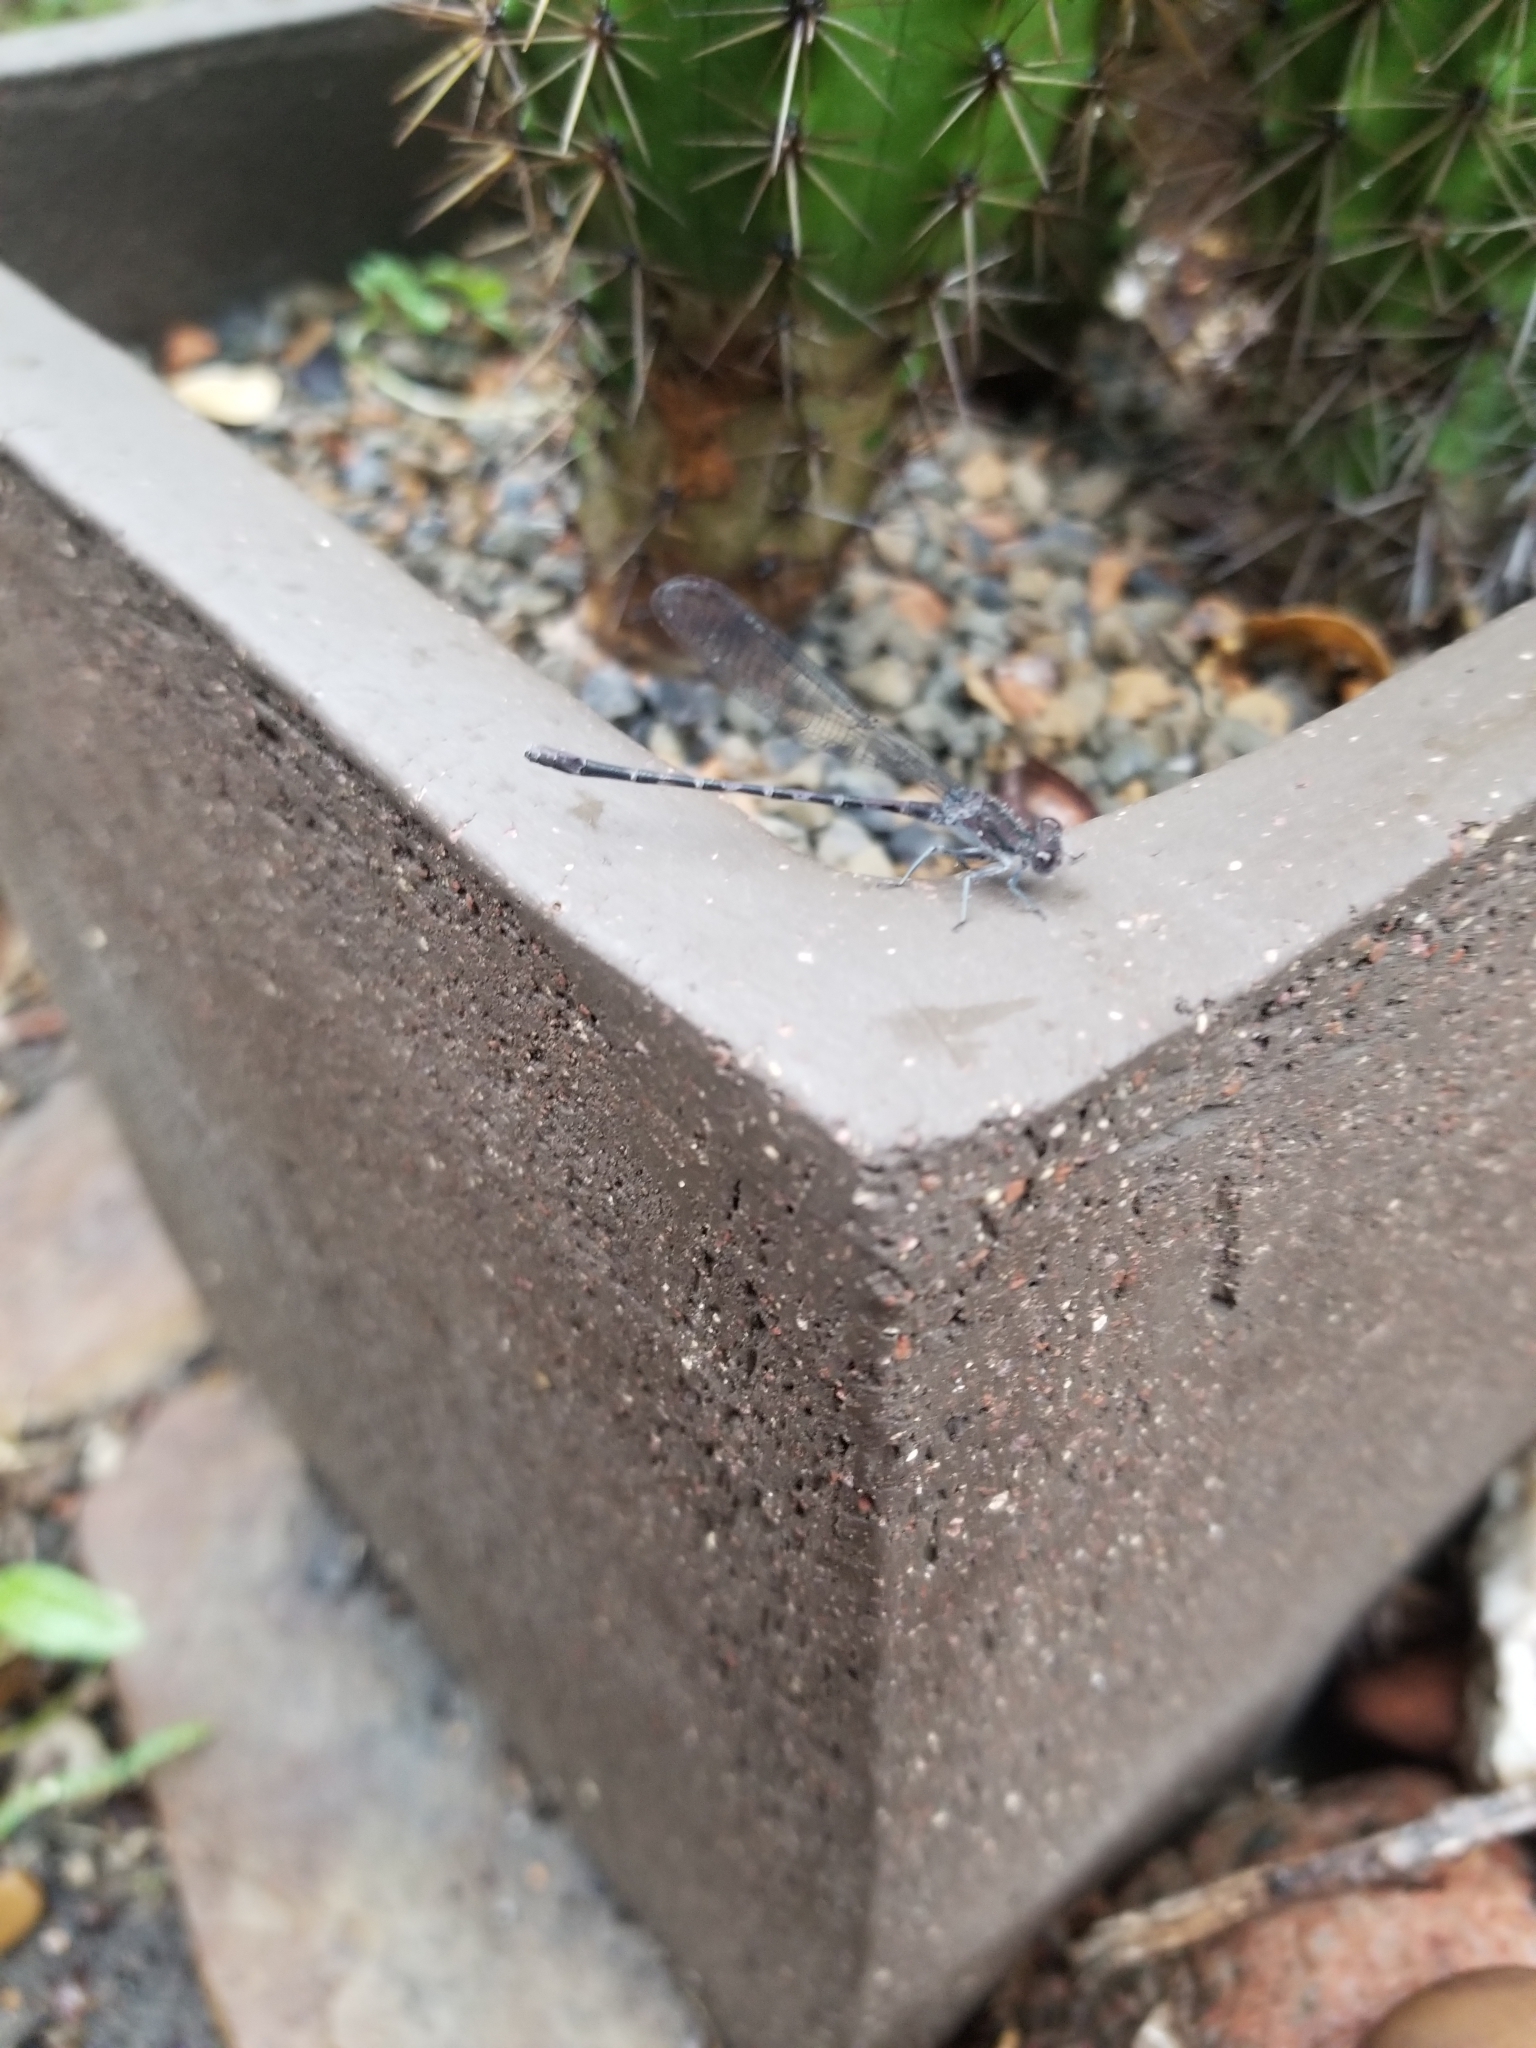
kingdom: Animalia
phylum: Arthropoda
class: Insecta
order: Odonata
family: Coenagrionidae
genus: Argia
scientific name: Argia immunda
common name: Kiowa dancer
